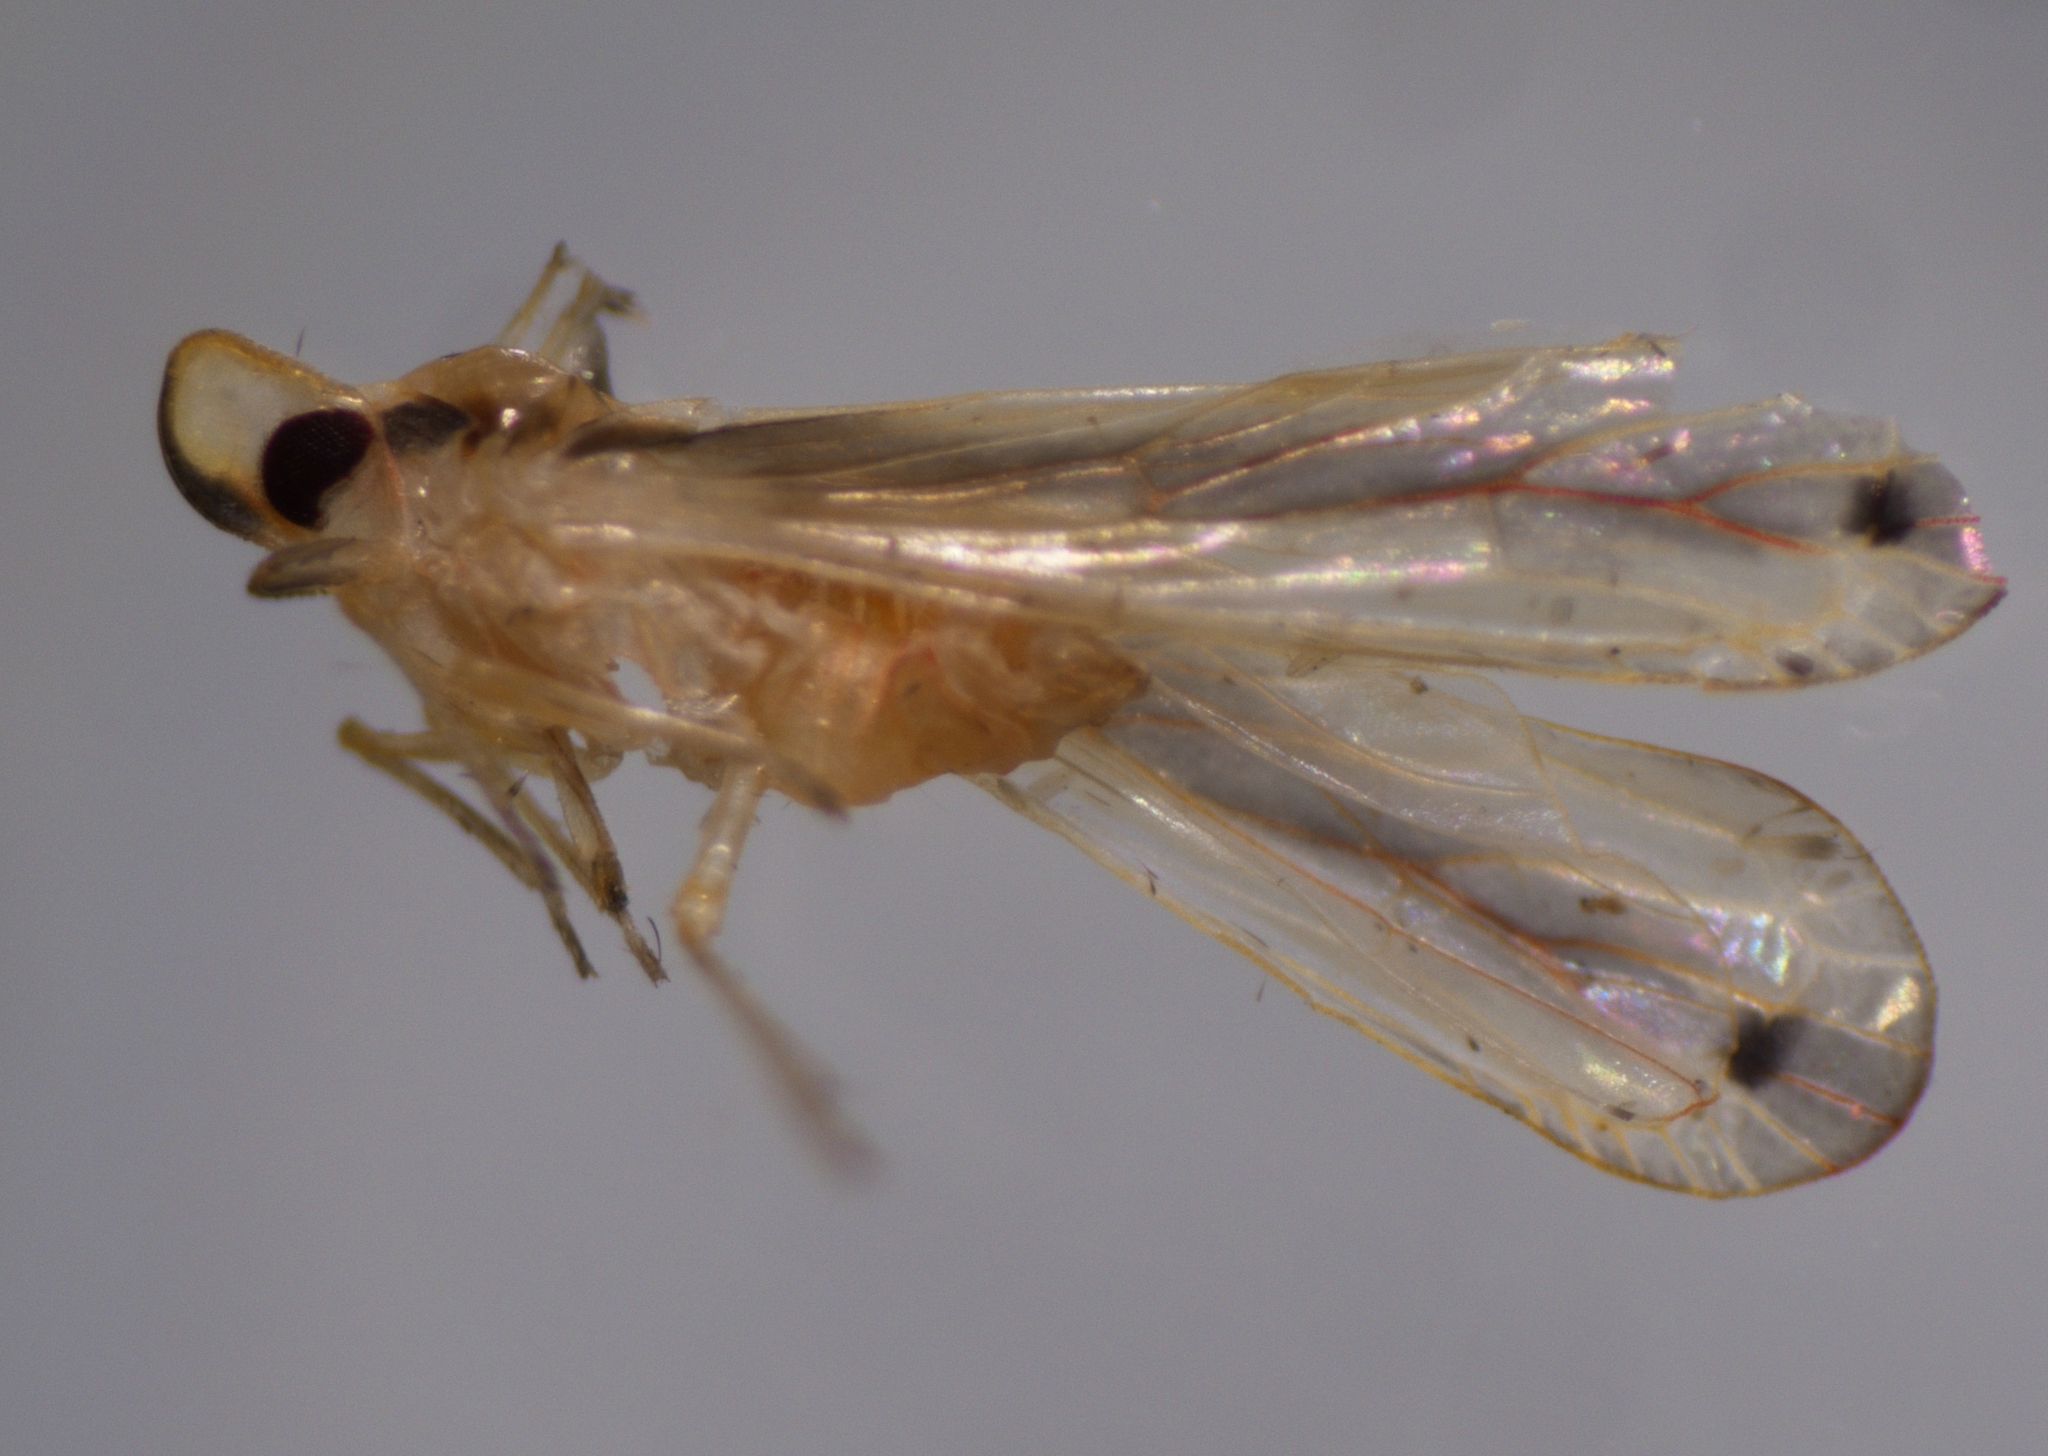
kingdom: Animalia
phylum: Arthropoda
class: Insecta
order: Hemiptera
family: Derbidae
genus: Swezeyia
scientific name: Swezeyia lyricen
